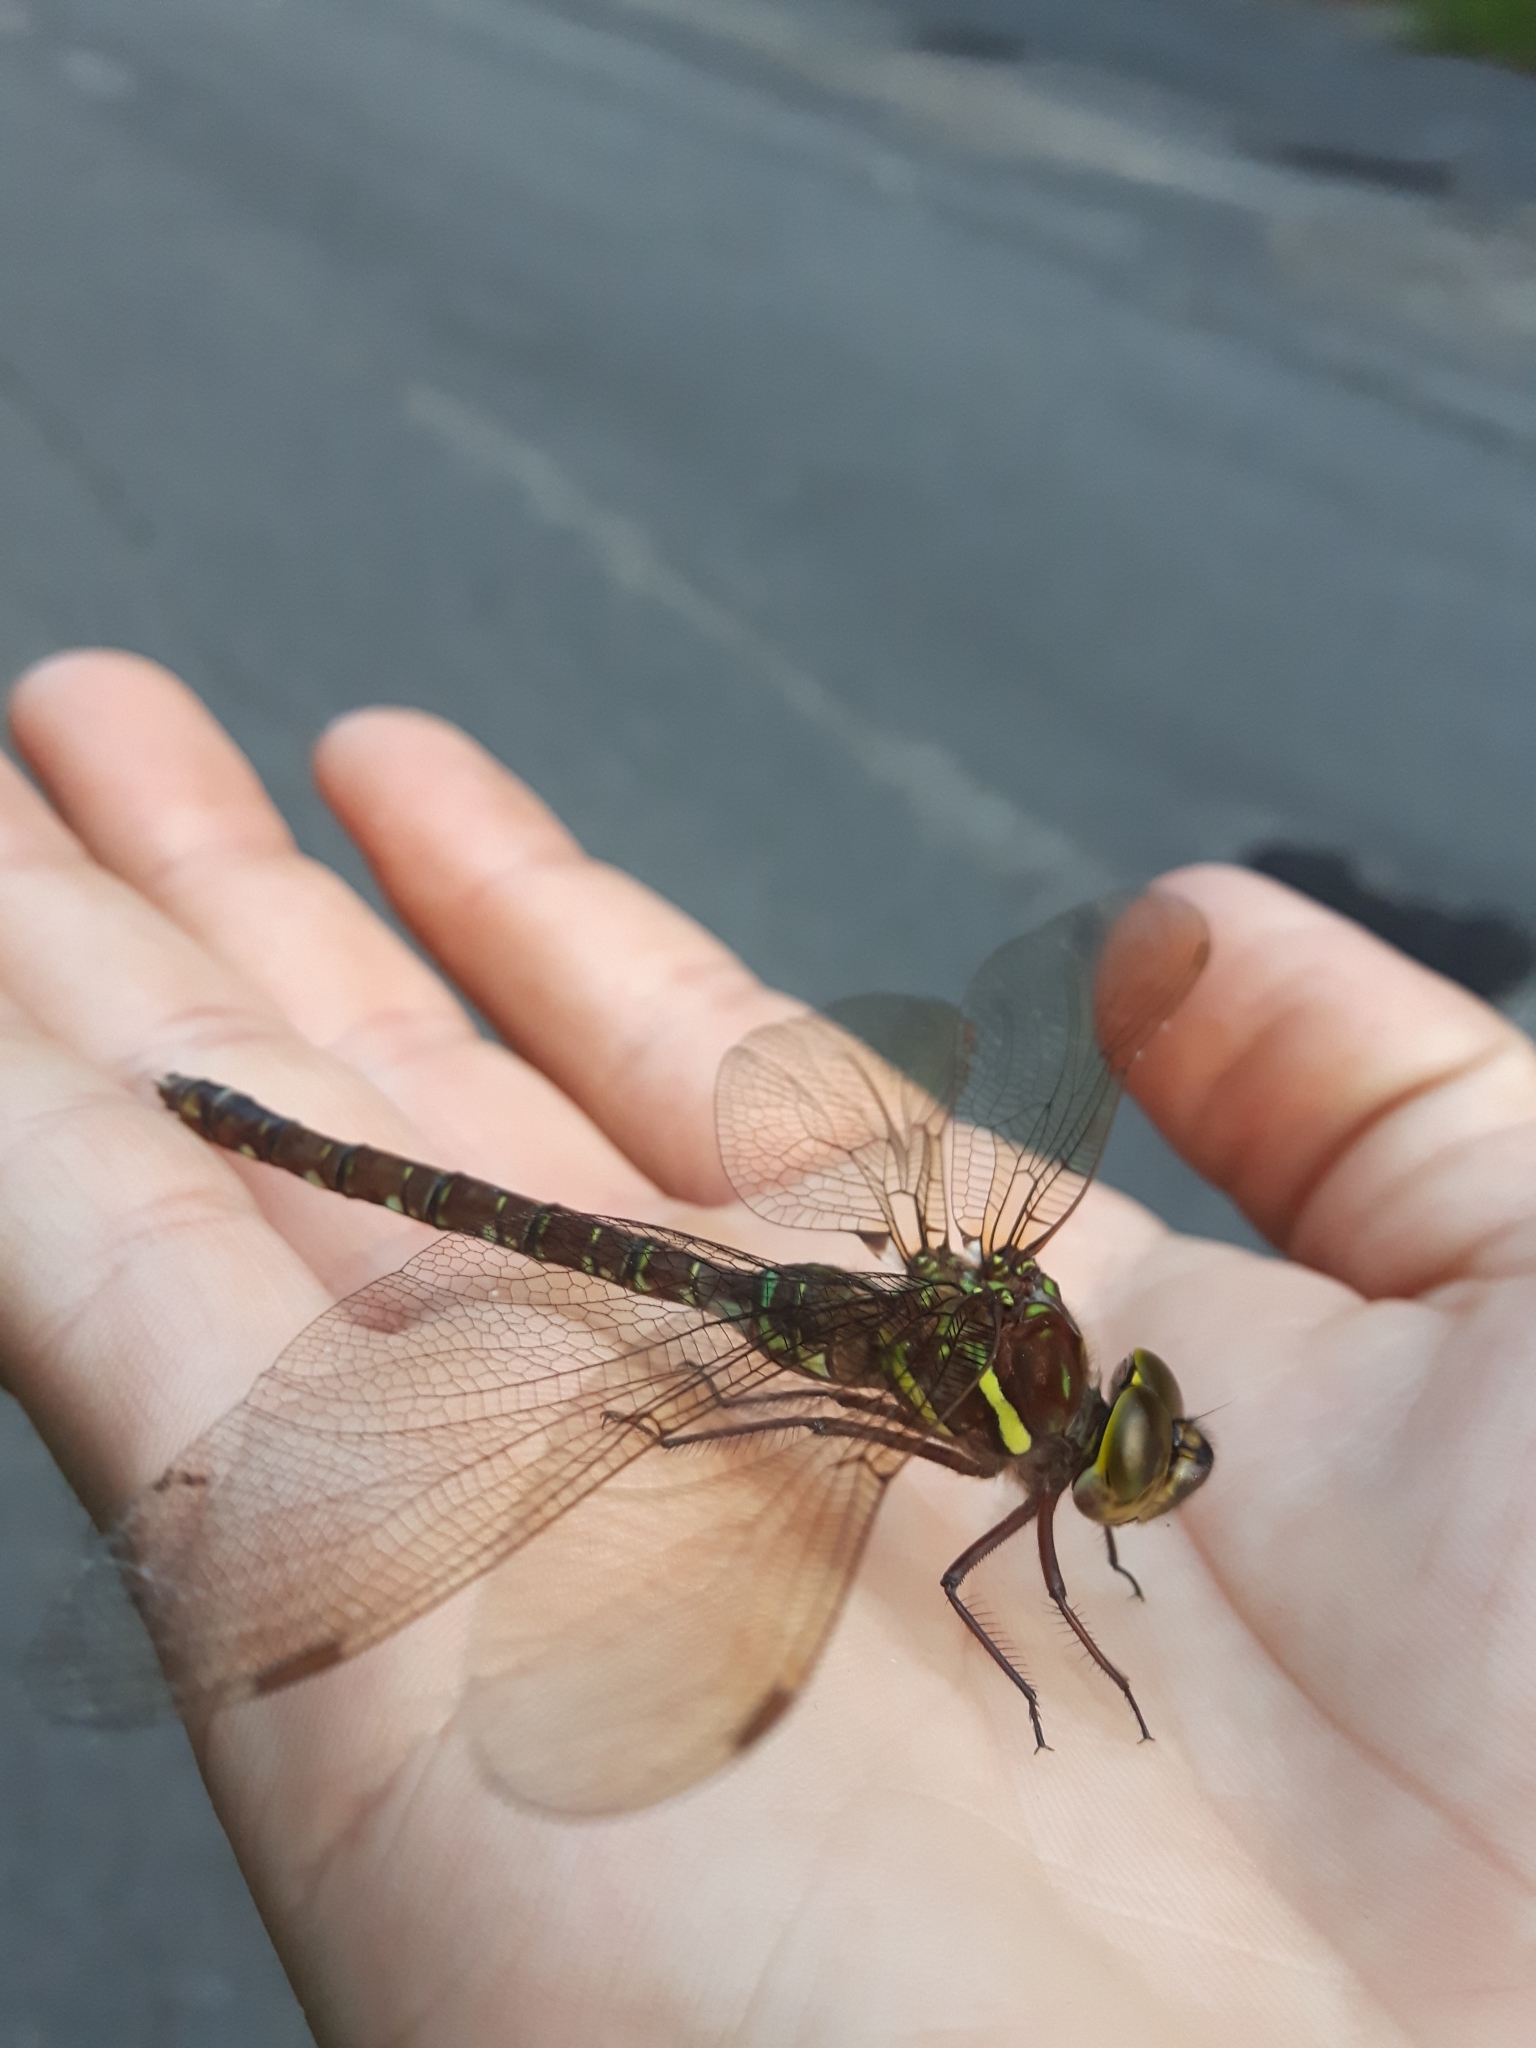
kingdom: Animalia
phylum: Arthropoda
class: Insecta
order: Odonata
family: Aeshnidae
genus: Aeshna
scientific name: Aeshna umbrosa
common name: Shadow darner
